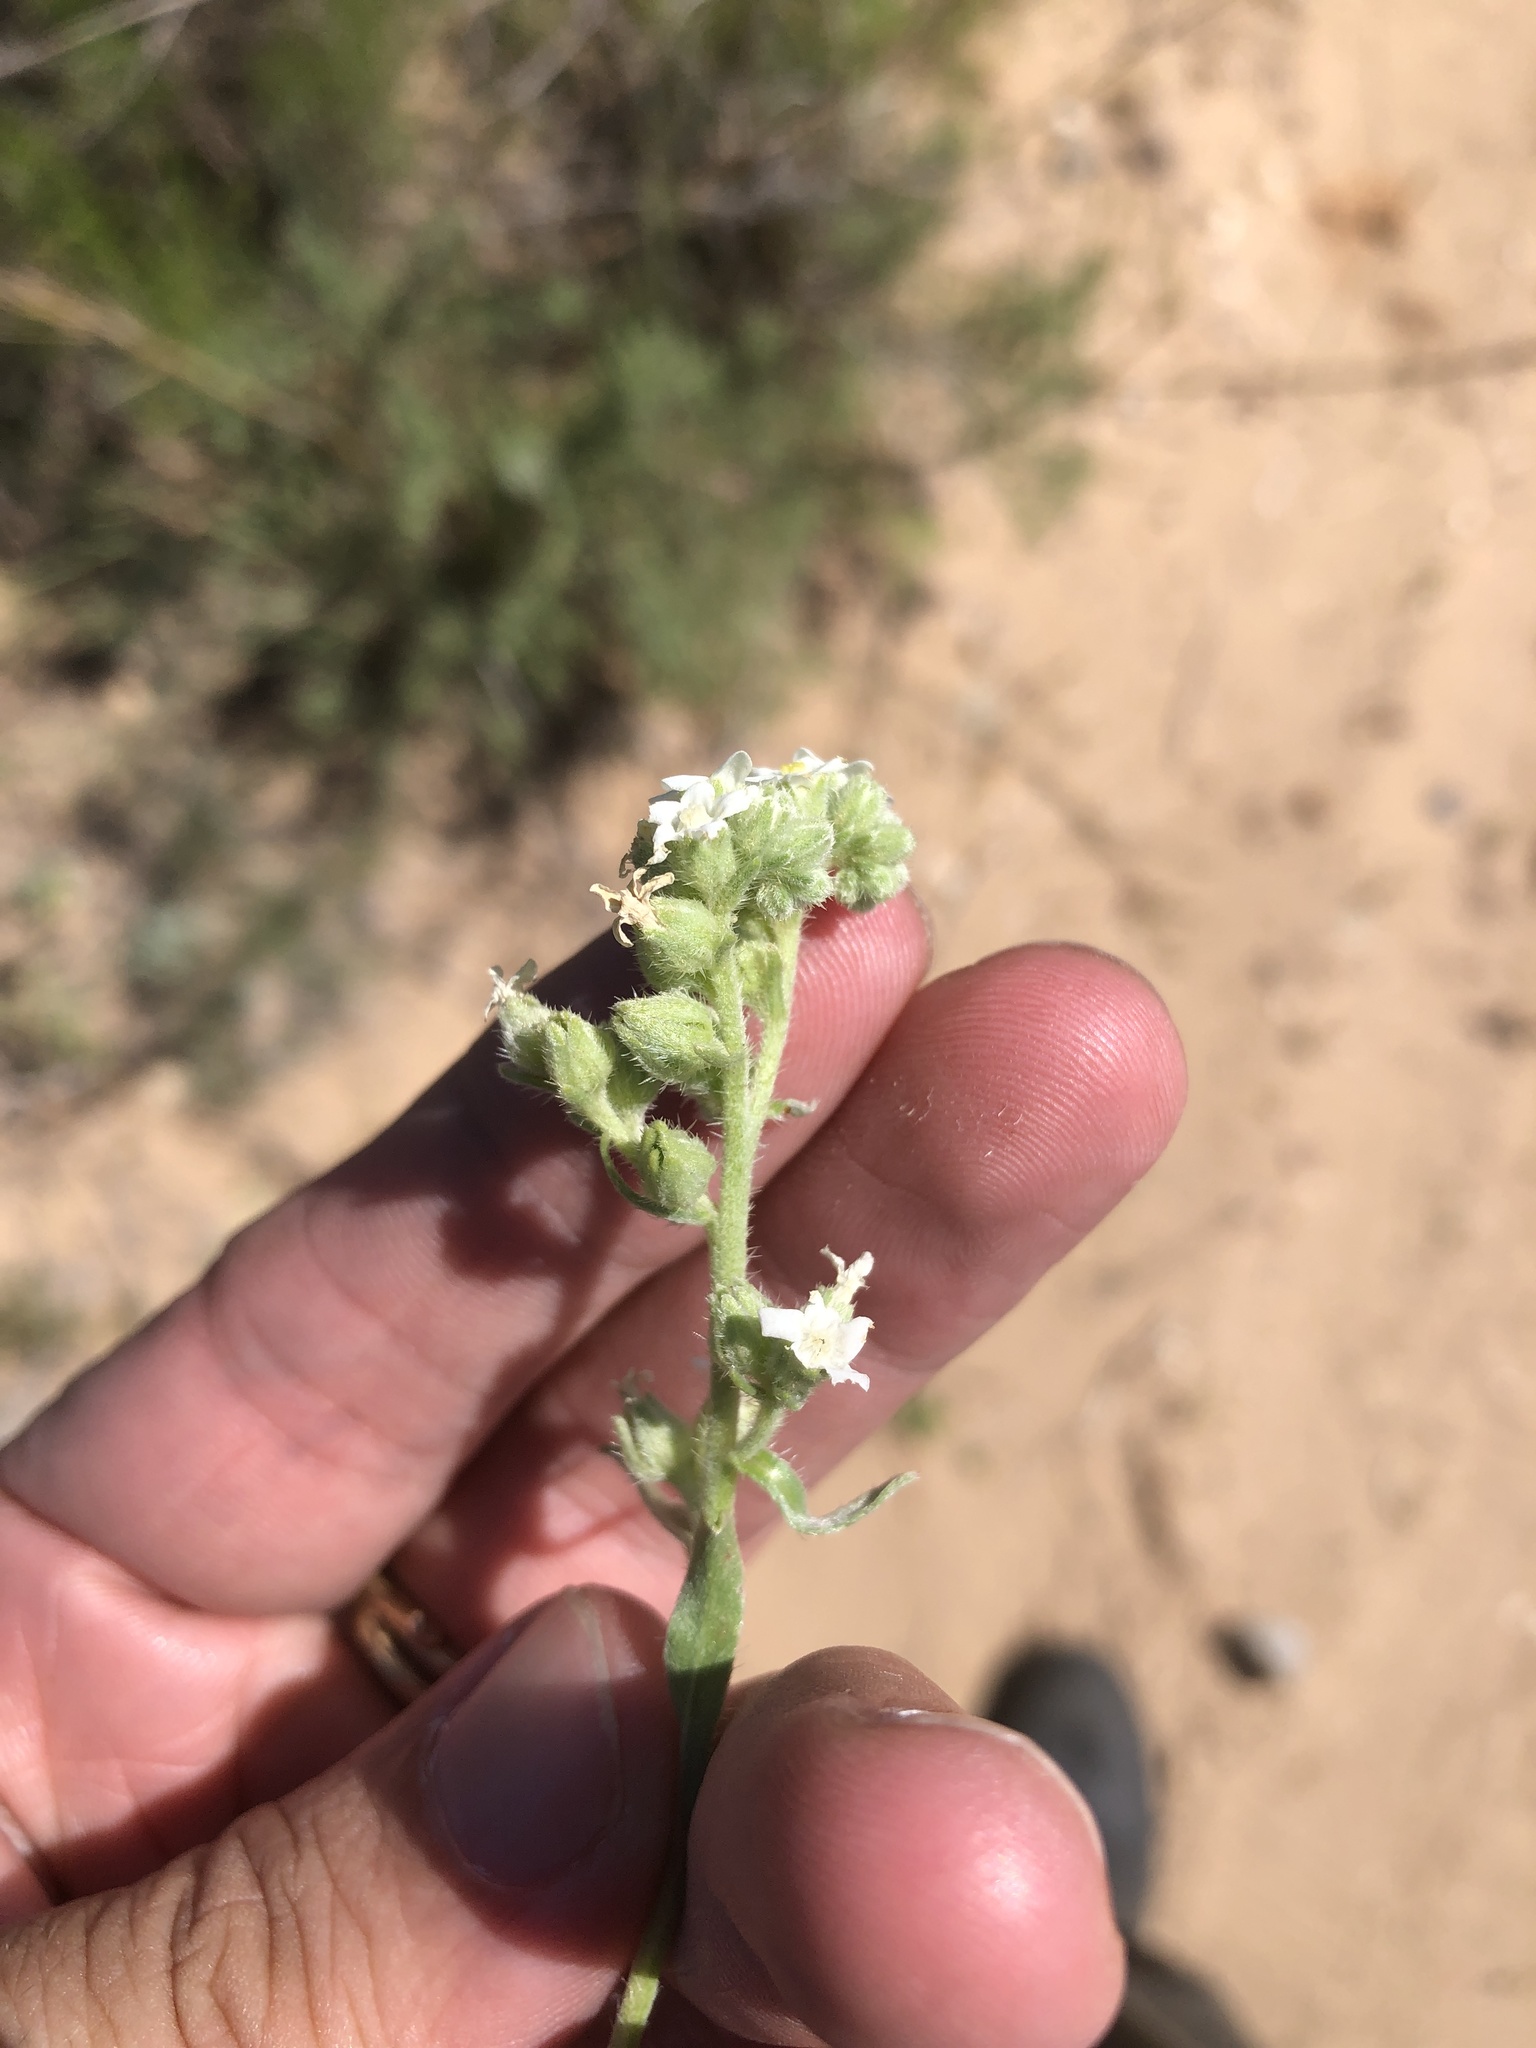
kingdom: Plantae
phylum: Tracheophyta
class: Magnoliopsida
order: Boraginales
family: Boraginaceae
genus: Oreocarya
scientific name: Oreocarya suffruticosa
